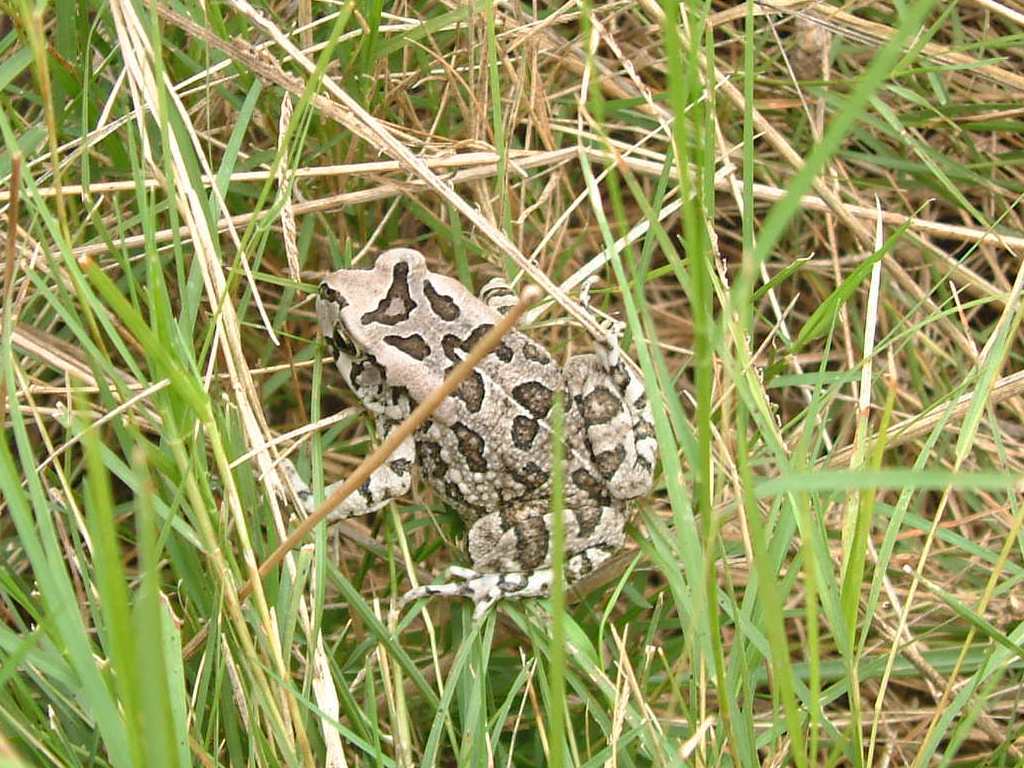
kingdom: Animalia
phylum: Chordata
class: Amphibia
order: Anura
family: Bufonidae
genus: Sclerophrys
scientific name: Sclerophrys capensis
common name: Ranger’s toad
